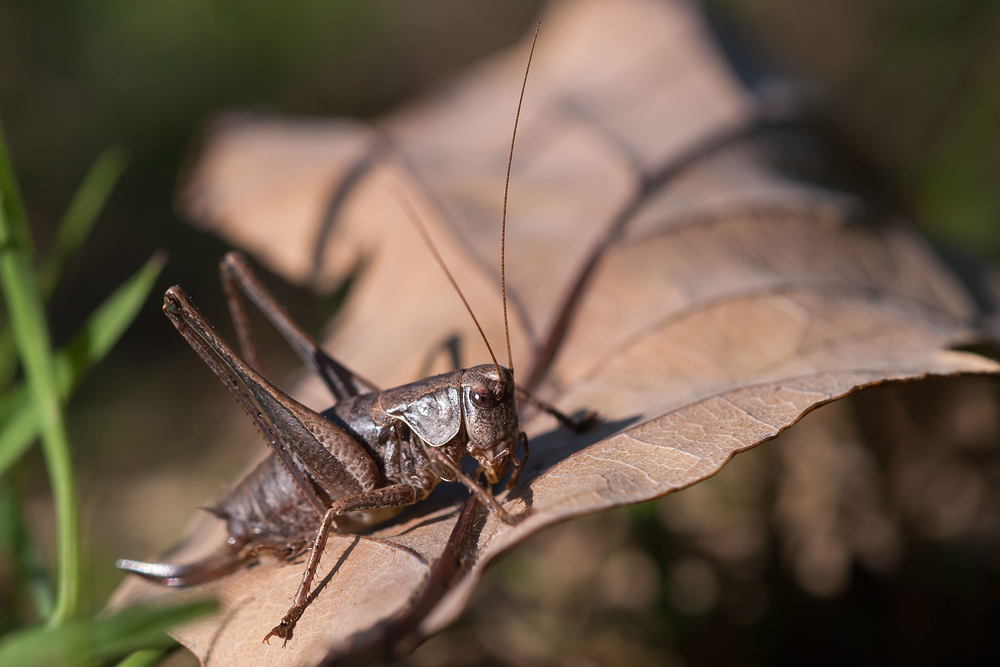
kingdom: Animalia
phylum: Arthropoda
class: Insecta
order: Orthoptera
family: Tettigoniidae
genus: Pholidoptera
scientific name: Pholidoptera griseoaptera
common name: Dark bush-cricket
